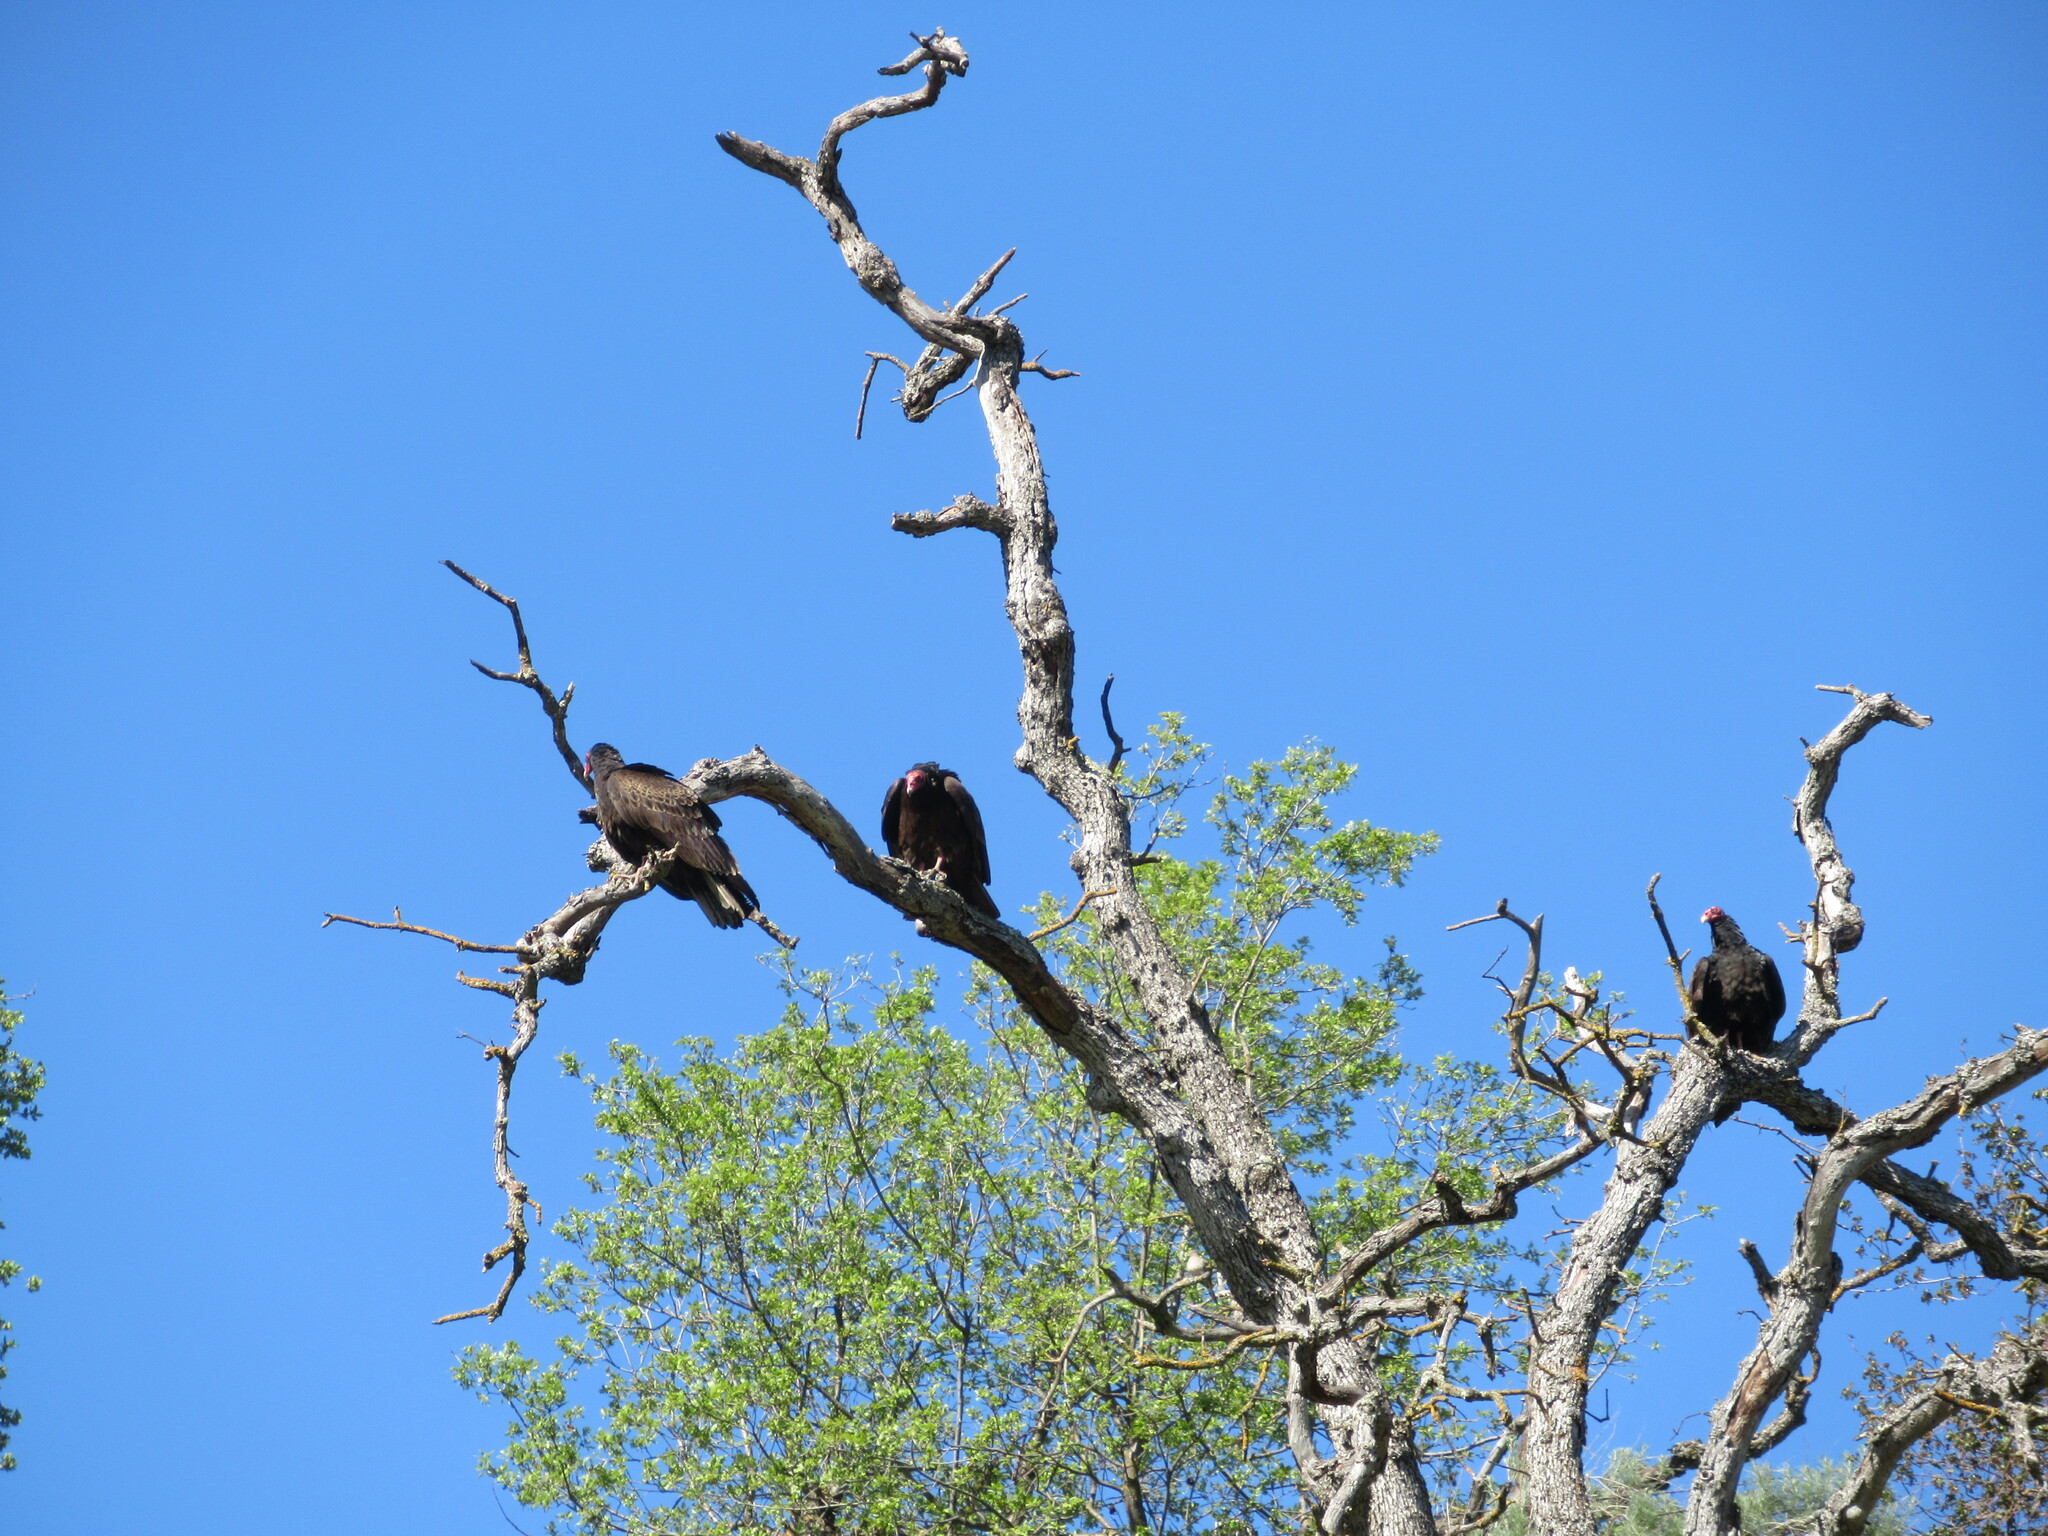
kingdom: Animalia
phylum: Chordata
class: Aves
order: Accipitriformes
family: Cathartidae
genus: Cathartes
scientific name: Cathartes aura
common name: Turkey vulture
